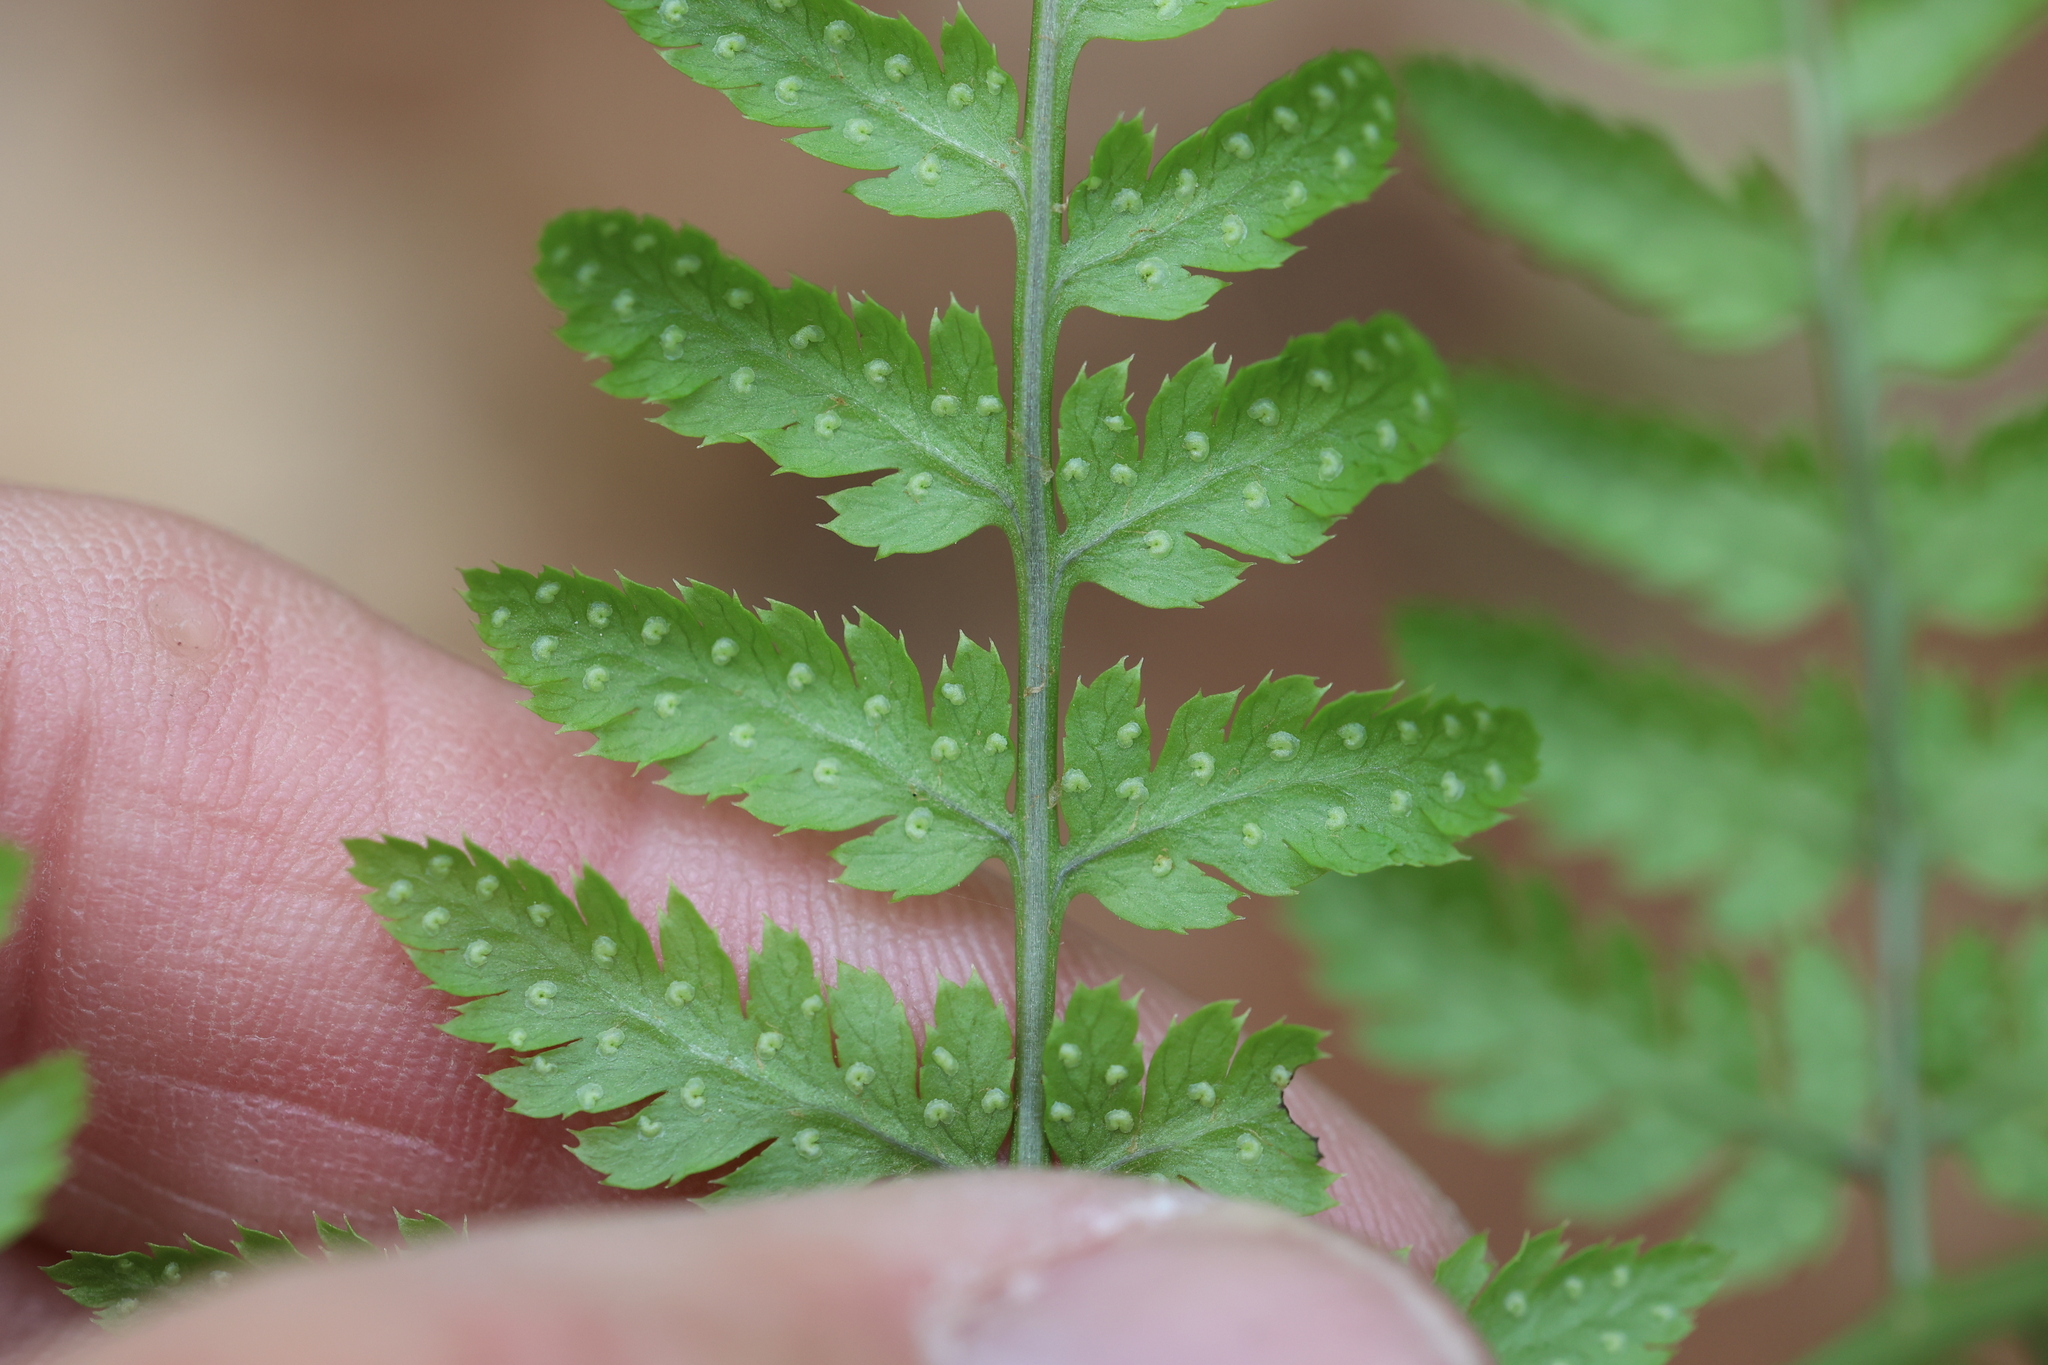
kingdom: Plantae
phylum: Tracheophyta
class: Polypodiopsida
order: Polypodiales
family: Dryopteridaceae
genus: Dryopteris
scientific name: Dryopteris intermedia
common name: Evergreen wood fern
